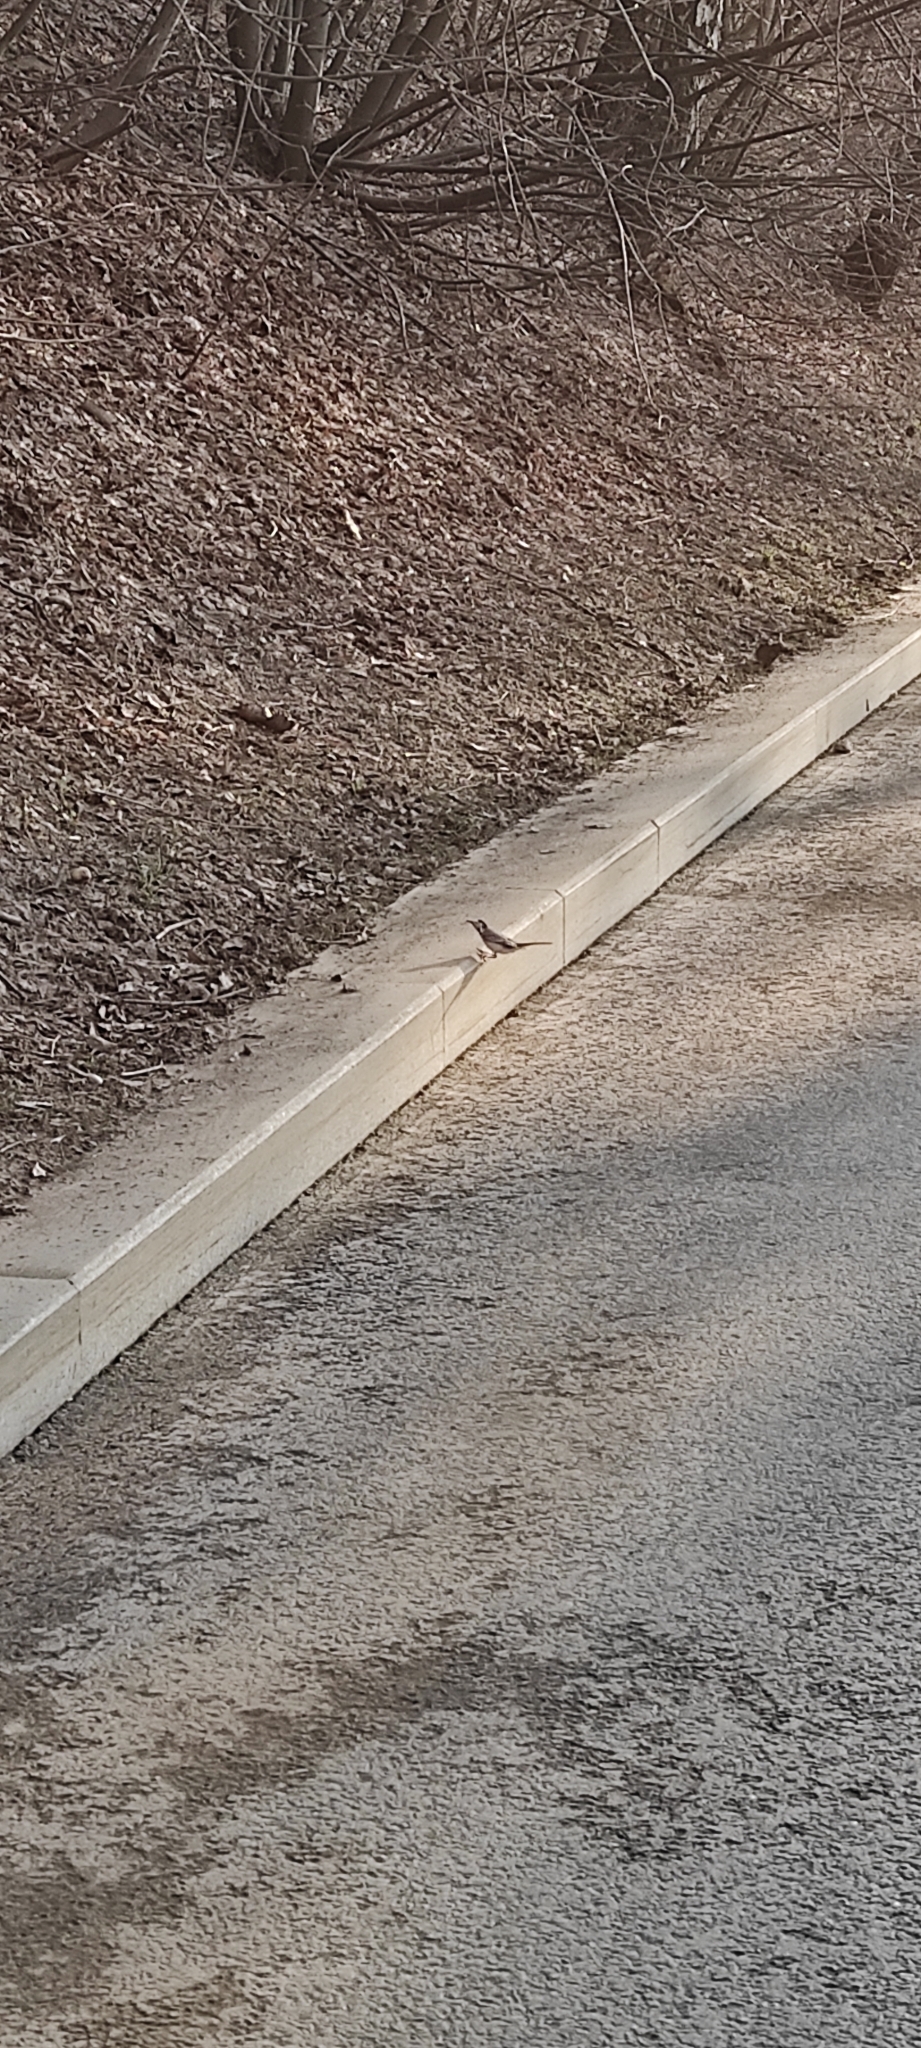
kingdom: Animalia
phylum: Chordata
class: Aves
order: Passeriformes
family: Motacillidae
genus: Motacilla
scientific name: Motacilla alba
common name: White wagtail
